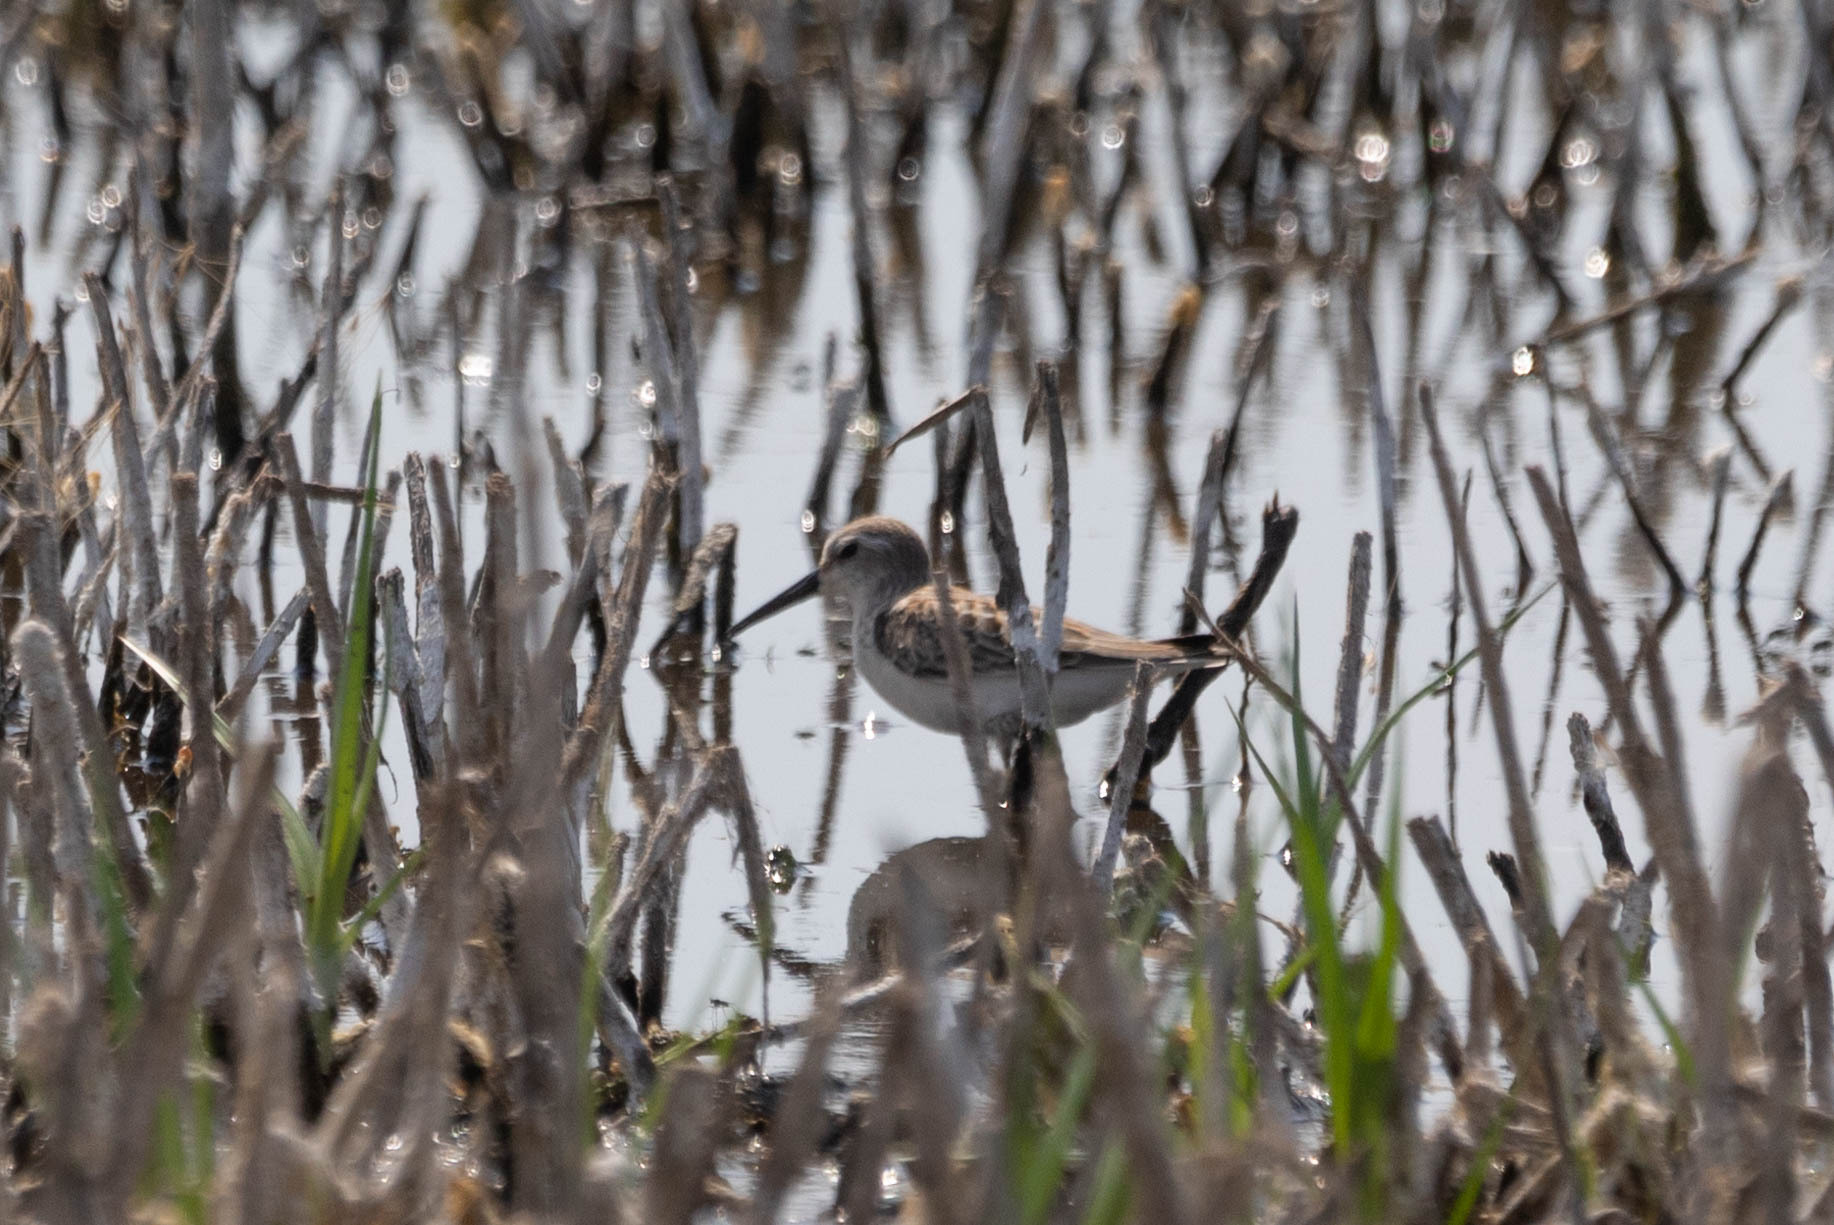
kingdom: Animalia
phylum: Chordata
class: Aves
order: Charadriiformes
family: Scolopacidae
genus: Calidris
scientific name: Calidris mauri
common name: Western sandpiper
